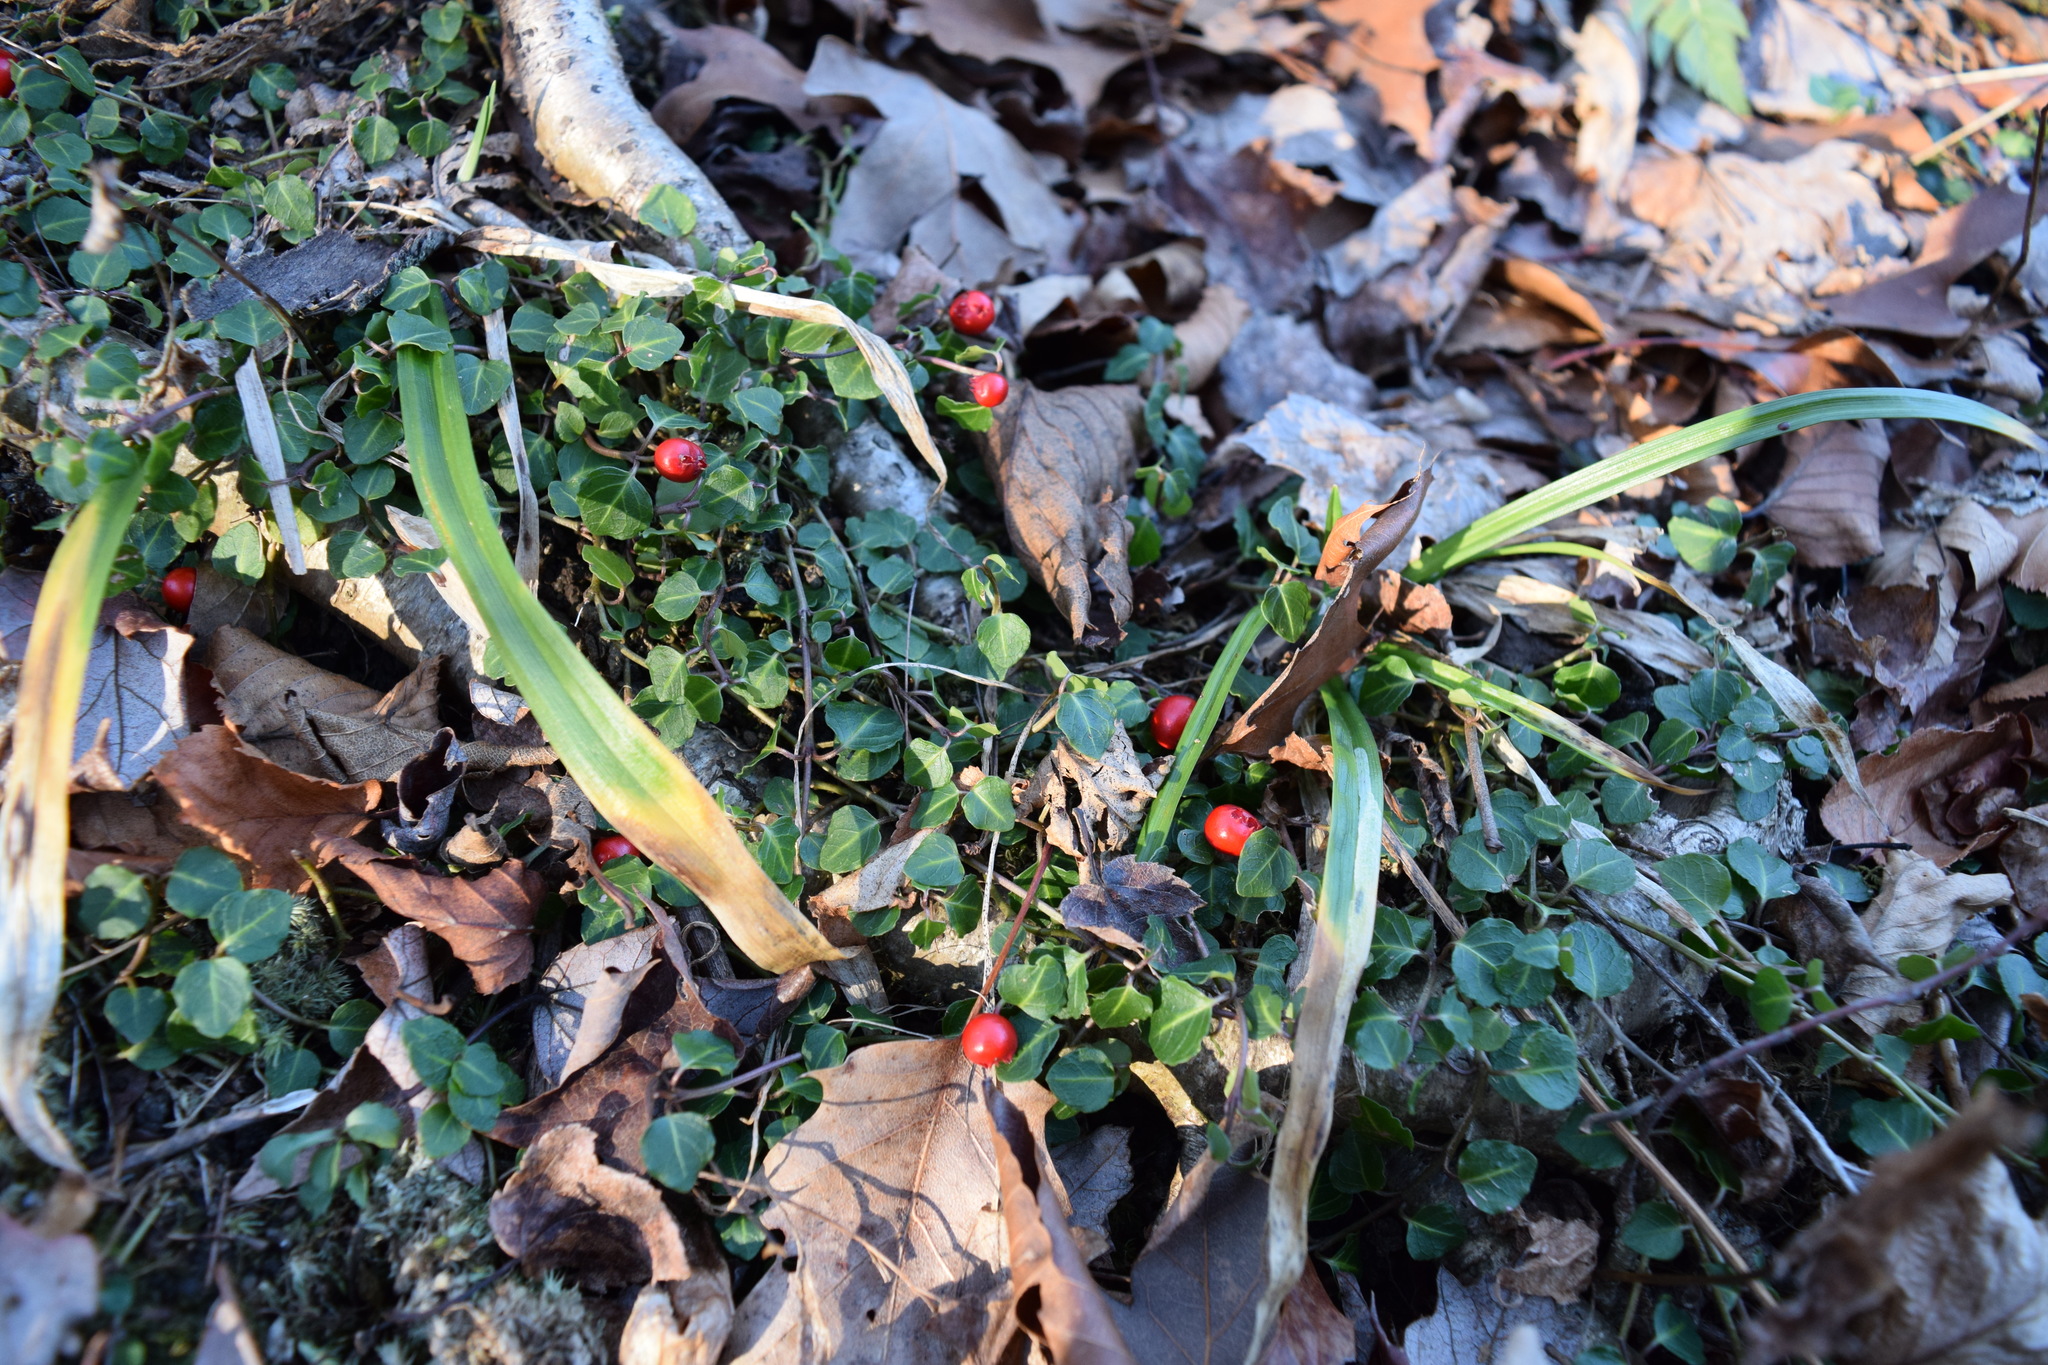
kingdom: Plantae
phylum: Tracheophyta
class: Magnoliopsida
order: Gentianales
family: Rubiaceae
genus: Mitchella
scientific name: Mitchella repens
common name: Partridge-berry
